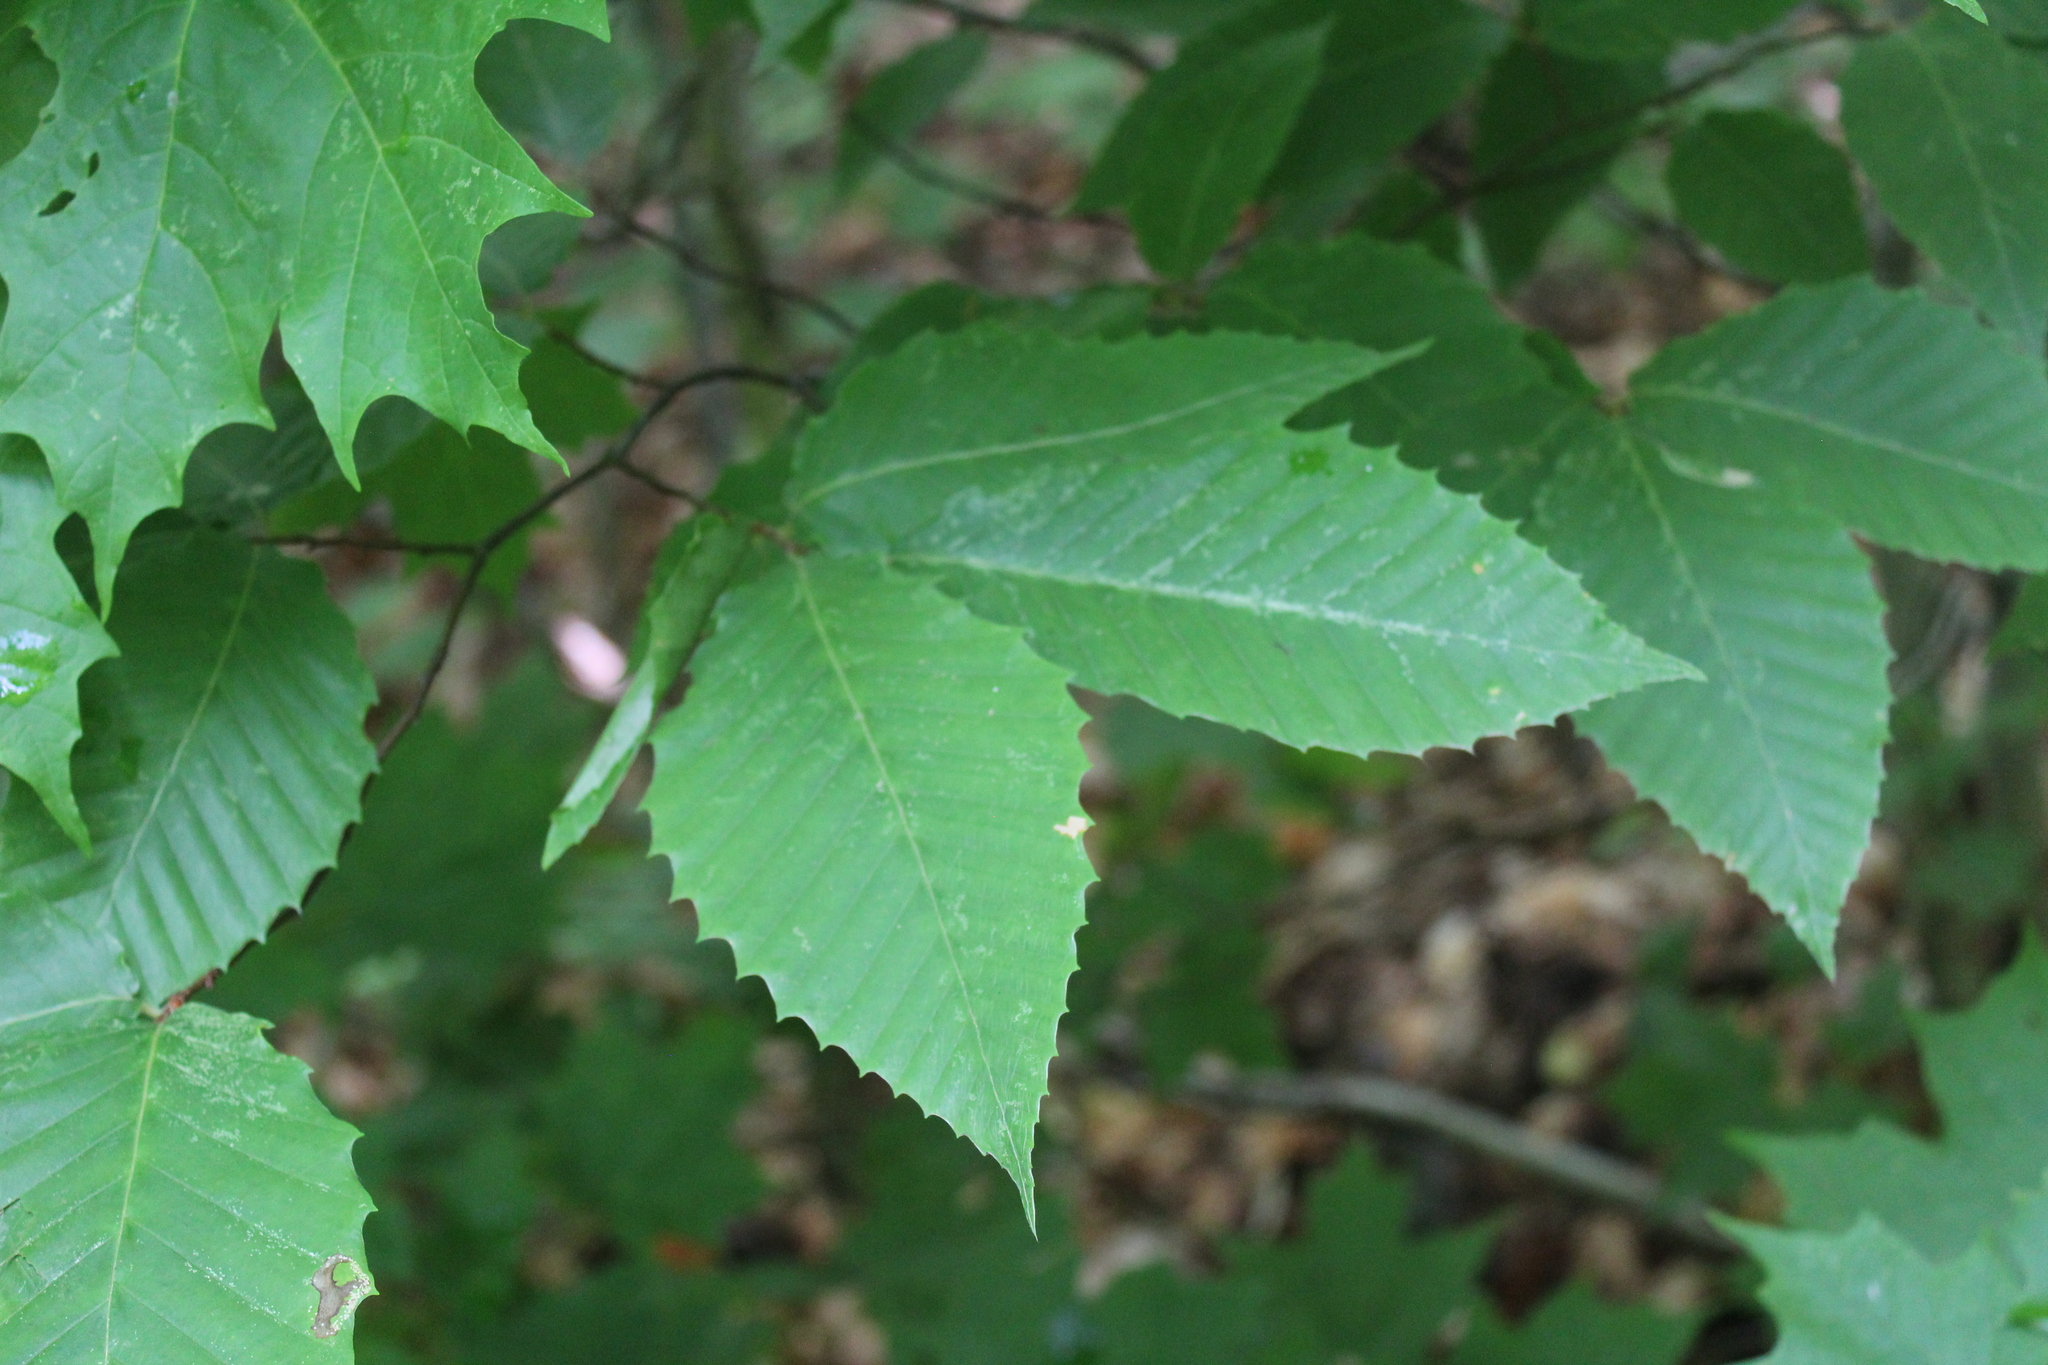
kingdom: Plantae
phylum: Tracheophyta
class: Magnoliopsida
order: Fagales
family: Fagaceae
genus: Fagus
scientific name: Fagus grandifolia
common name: American beech
